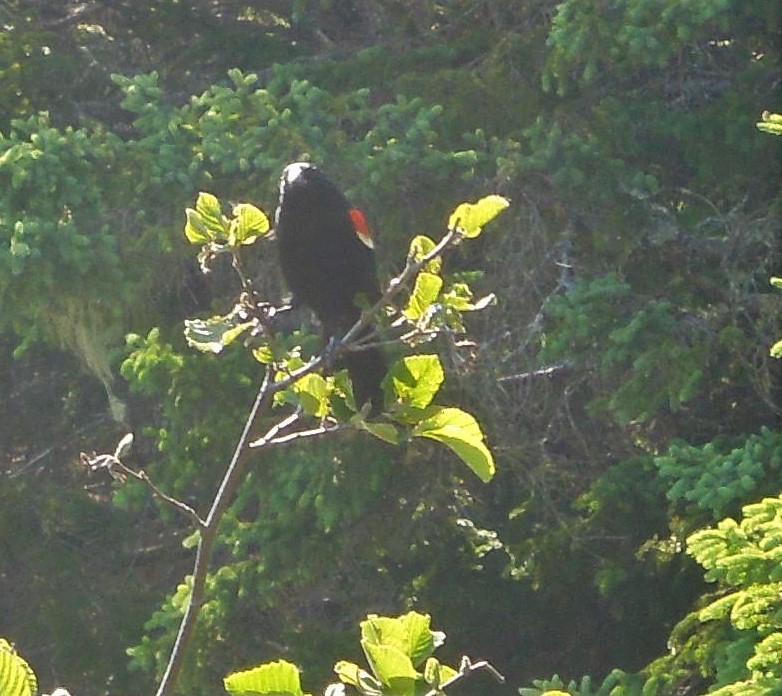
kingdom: Animalia
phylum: Chordata
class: Aves
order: Passeriformes
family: Icteridae
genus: Agelaius
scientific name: Agelaius phoeniceus
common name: Red-winged blackbird
